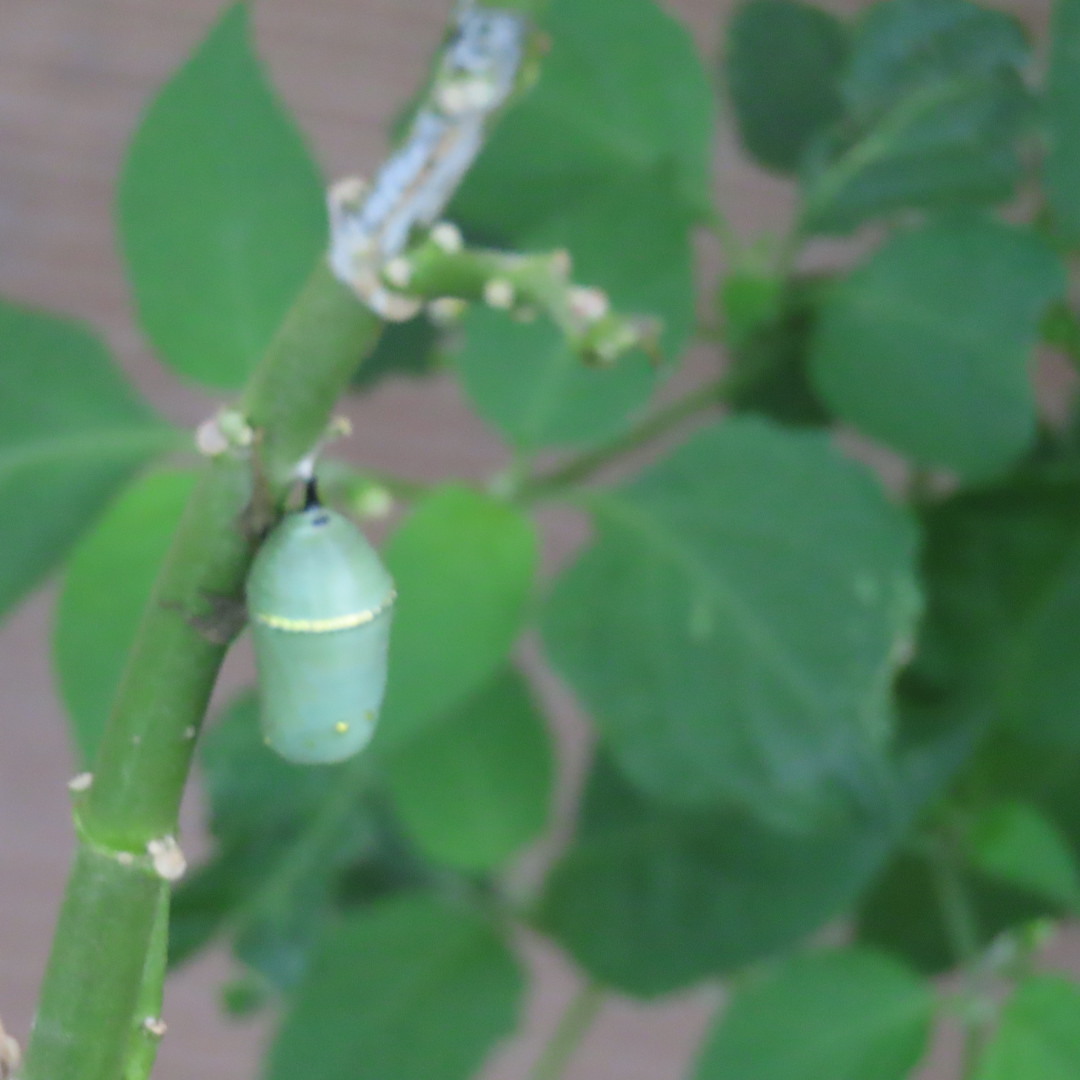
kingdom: Animalia
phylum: Arthropoda
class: Insecta
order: Lepidoptera
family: Nymphalidae
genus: Danaus
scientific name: Danaus plexippus
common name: Monarch
